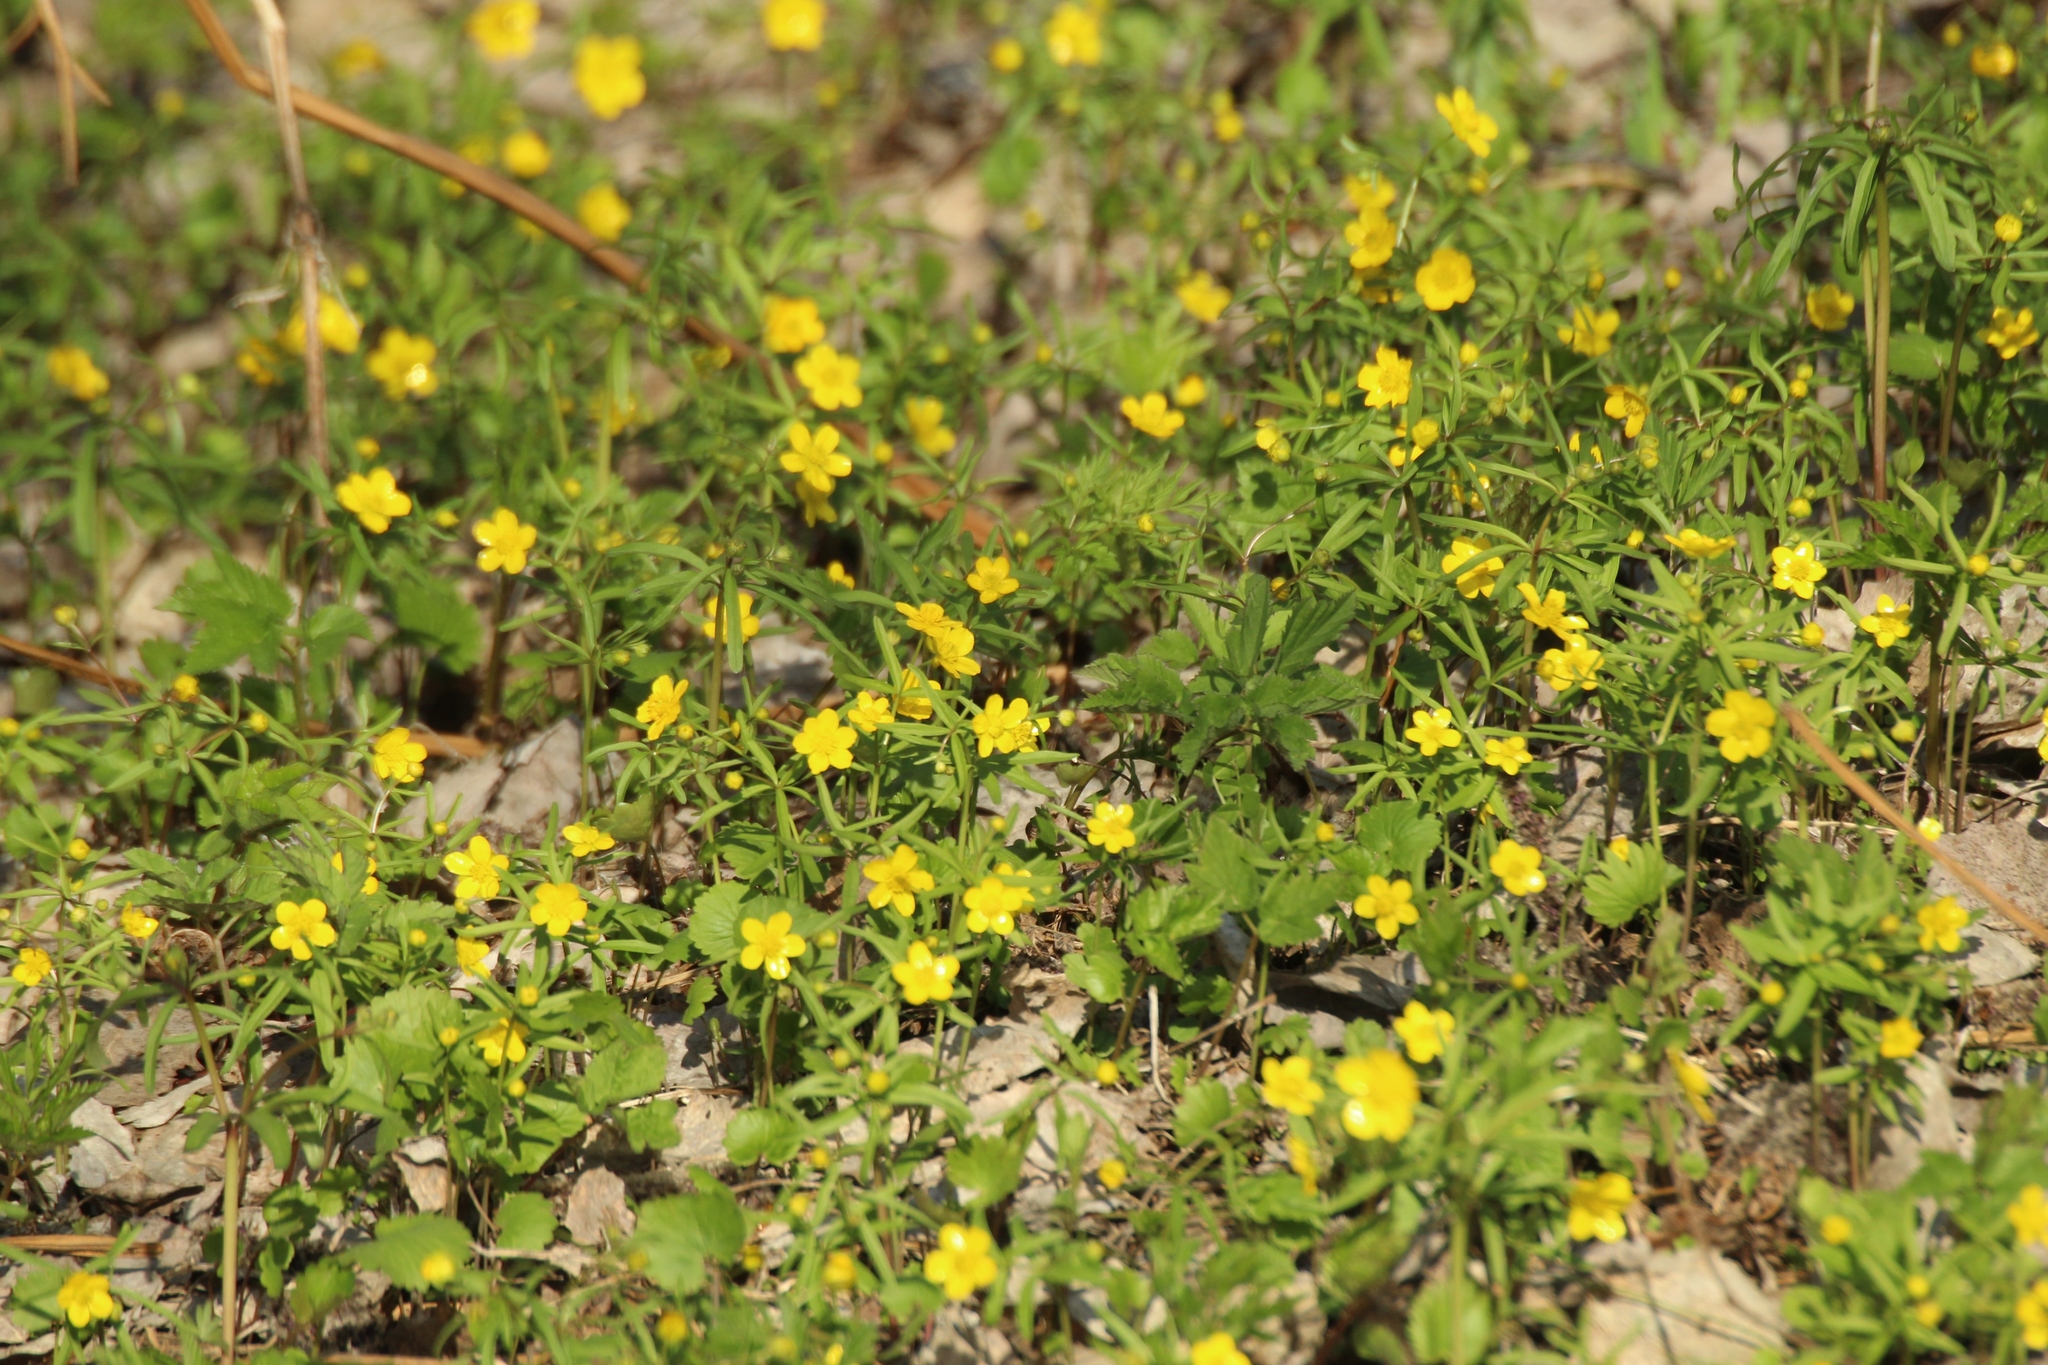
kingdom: Plantae
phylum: Tracheophyta
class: Magnoliopsida
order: Ranunculales
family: Ranunculaceae
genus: Ranunculus
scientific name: Ranunculus monophyllus
